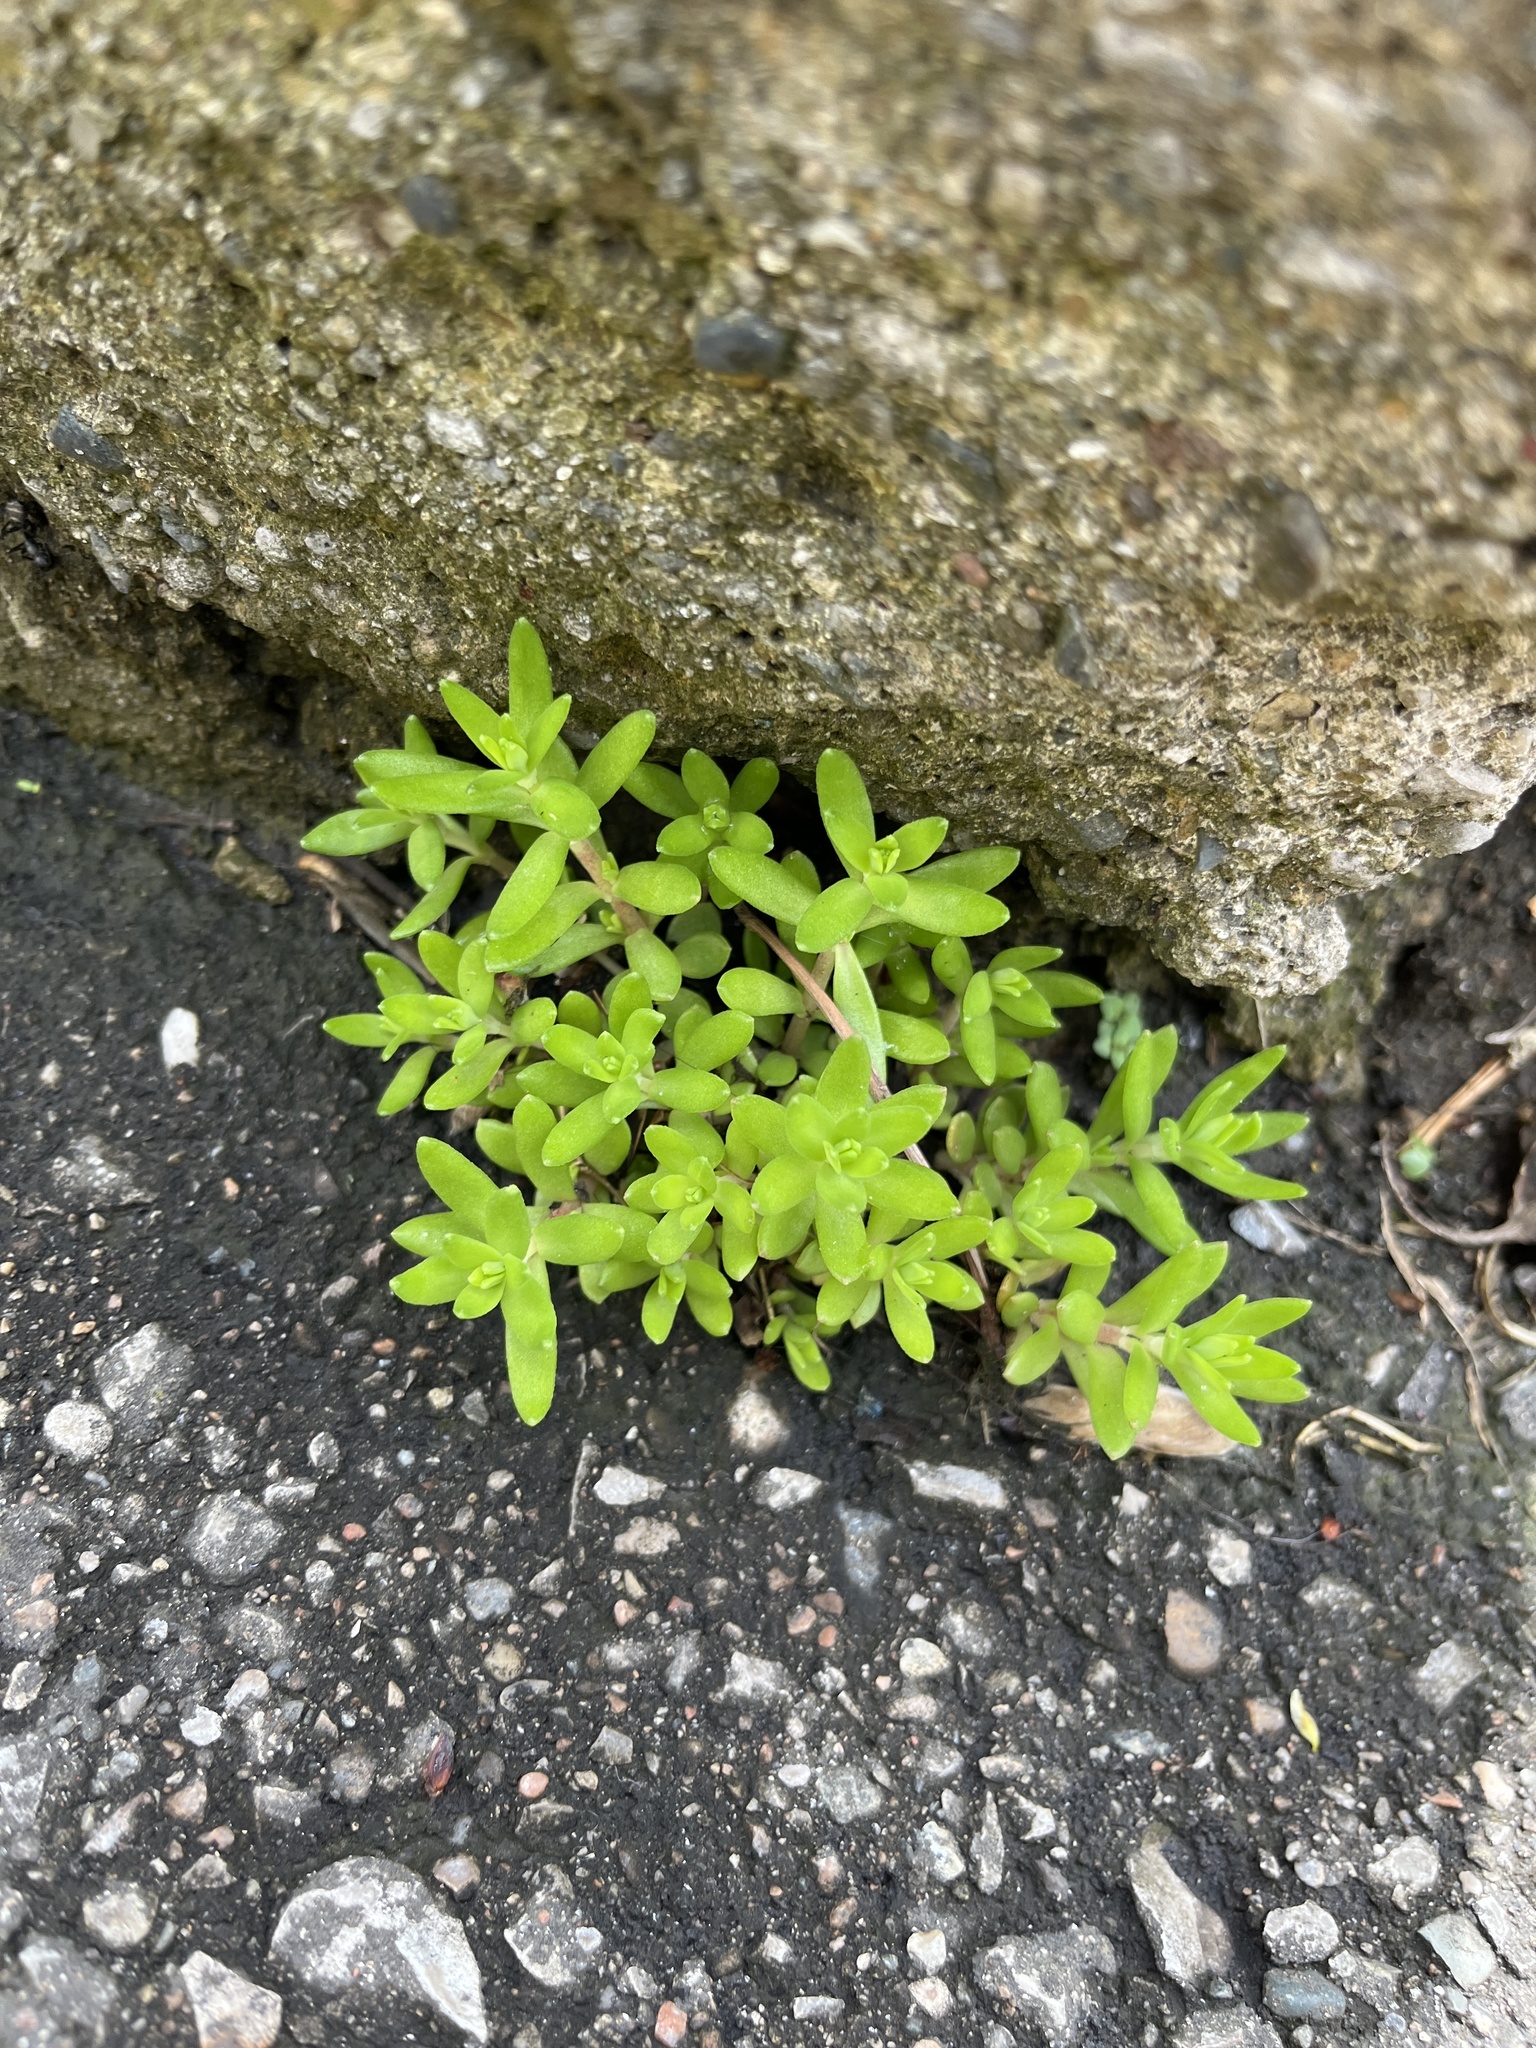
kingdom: Plantae
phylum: Tracheophyta
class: Magnoliopsida
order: Saxifragales
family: Crassulaceae
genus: Sedum
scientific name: Sedum sarmentosum
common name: Stringy stonecrop
